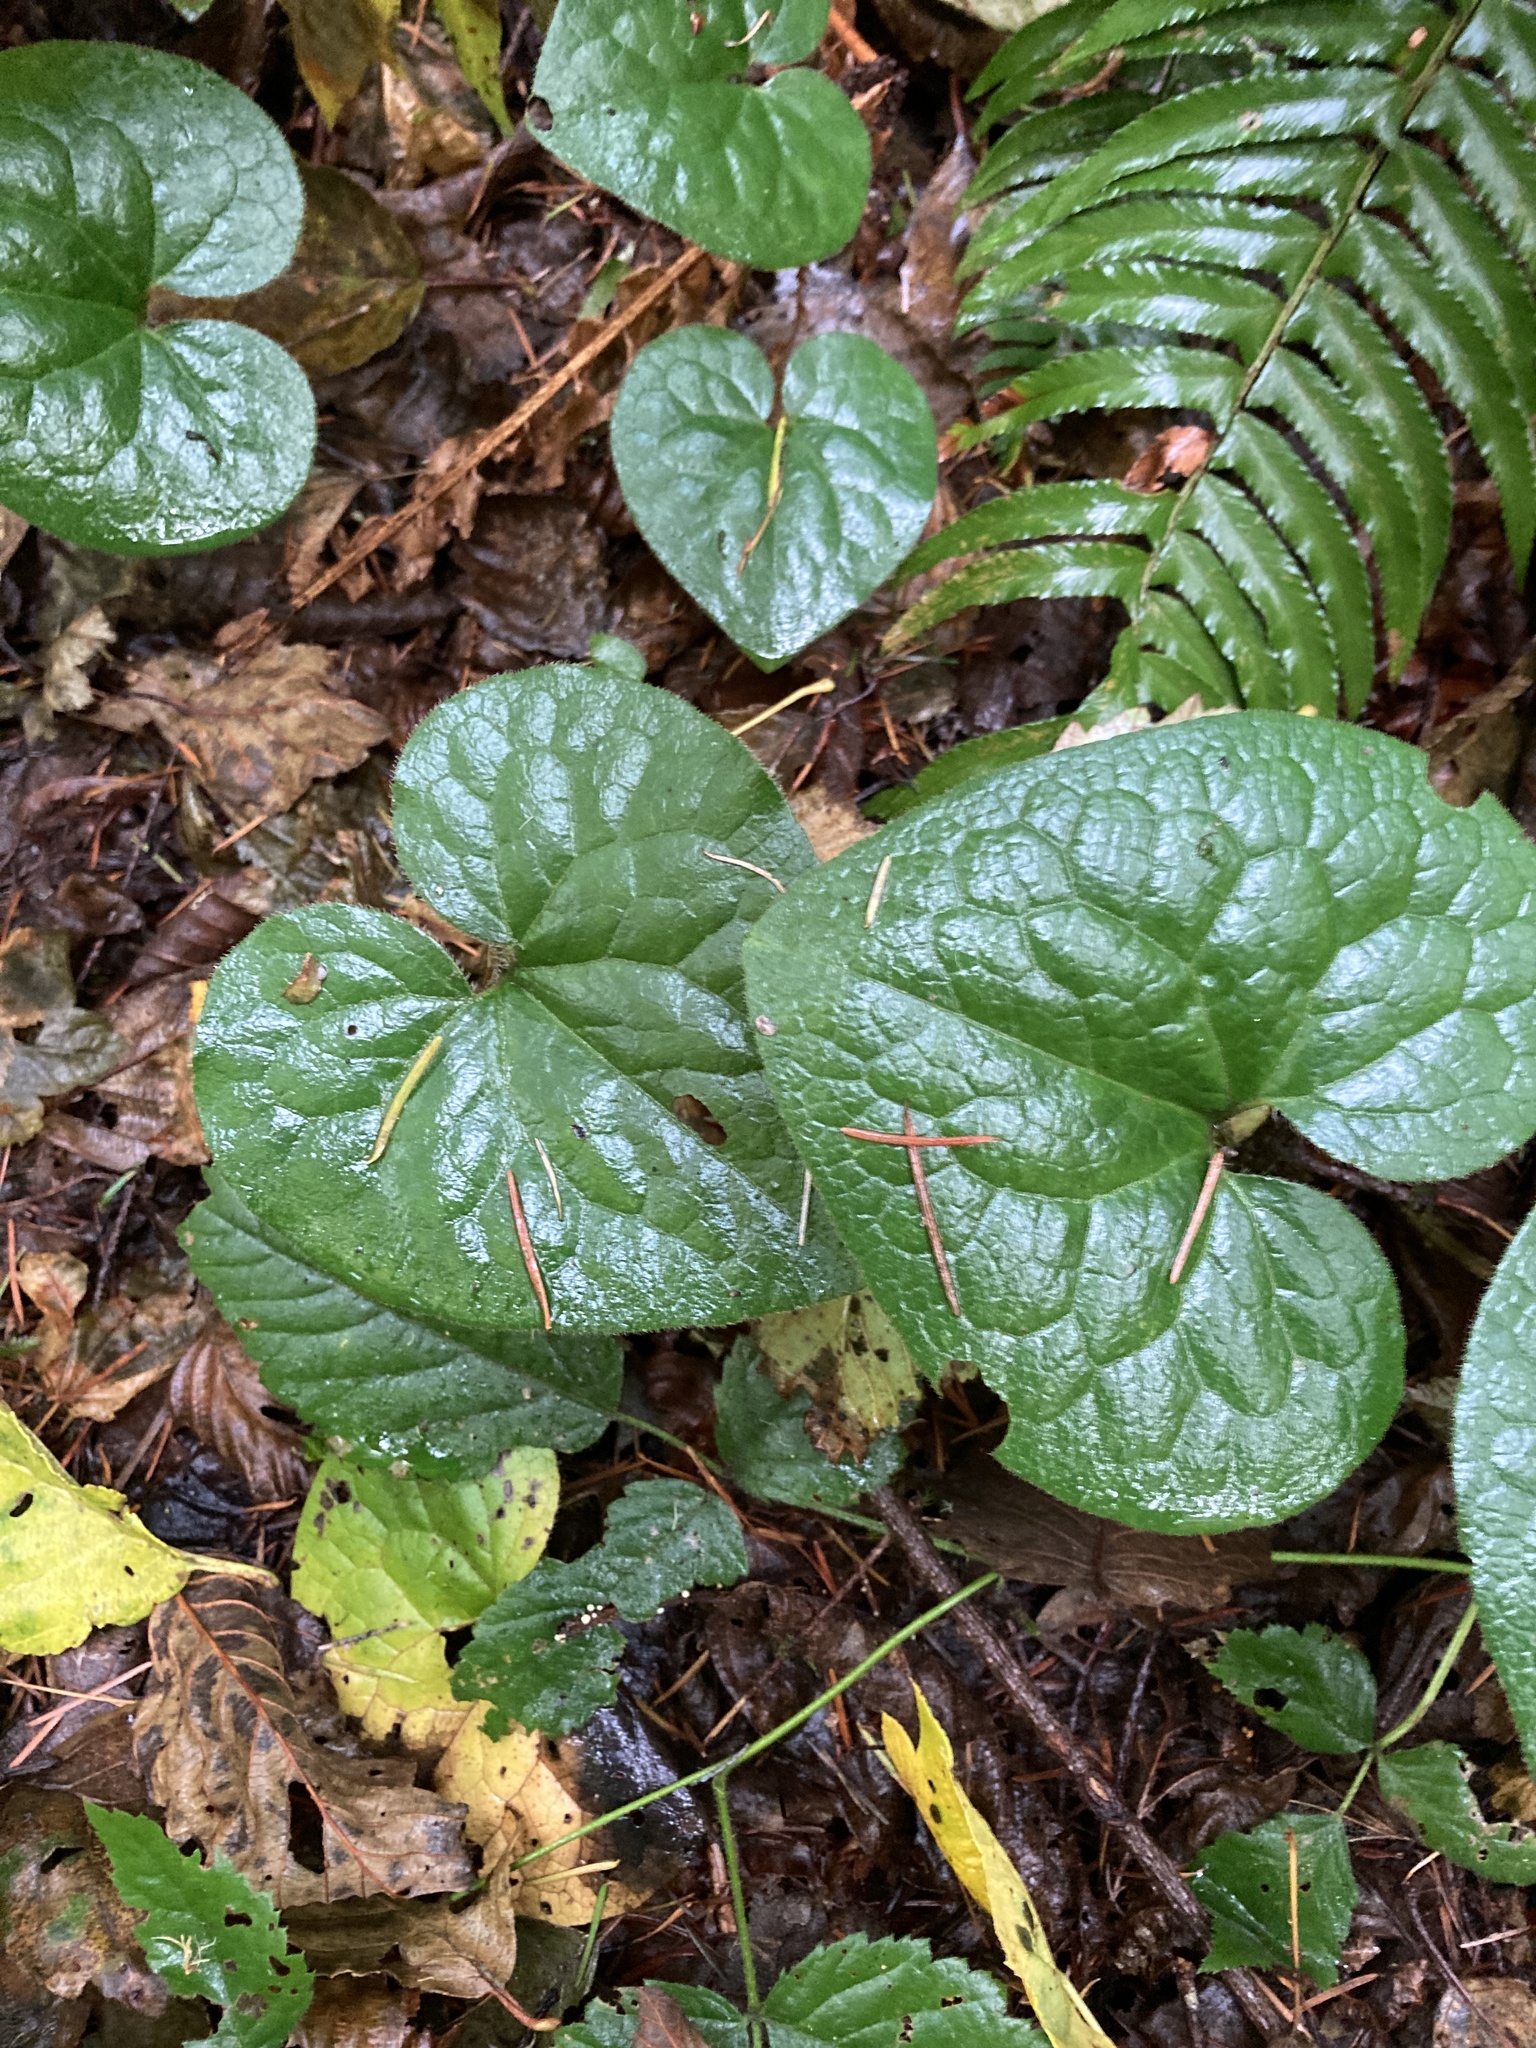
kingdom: Plantae
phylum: Tracheophyta
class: Magnoliopsida
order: Piperales
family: Aristolochiaceae
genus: Asarum
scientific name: Asarum caudatum
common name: Wild ginger
